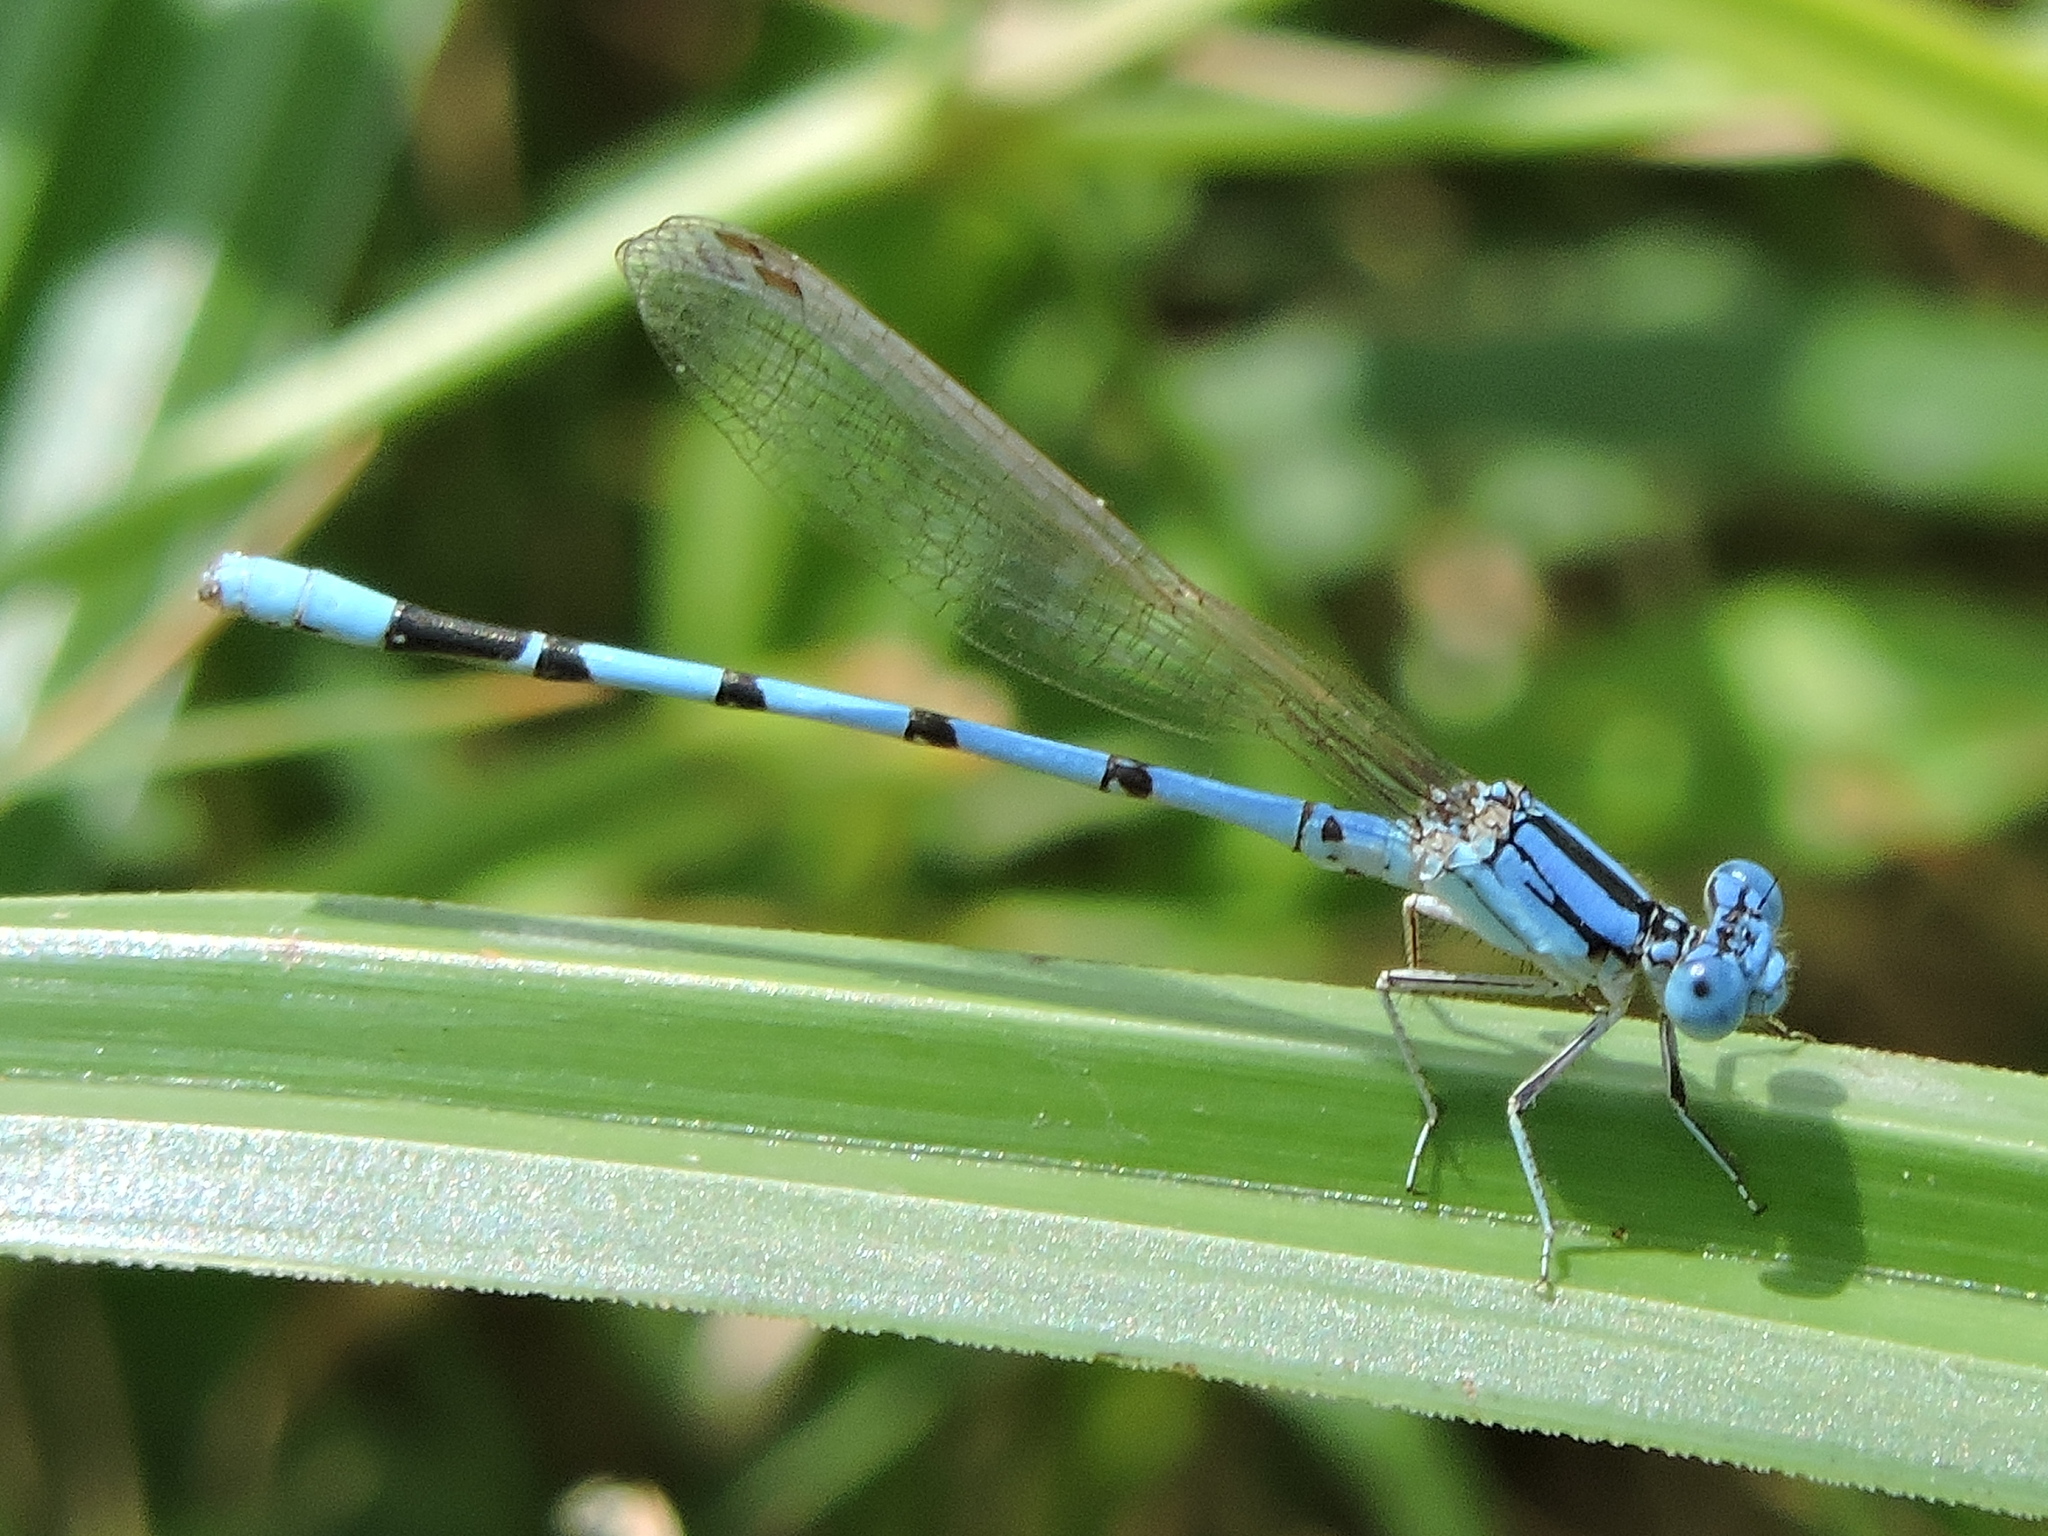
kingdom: Animalia
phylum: Arthropoda
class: Insecta
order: Odonata
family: Coenagrionidae
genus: Argia
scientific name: Argia nahuana
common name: Aztec dancer
